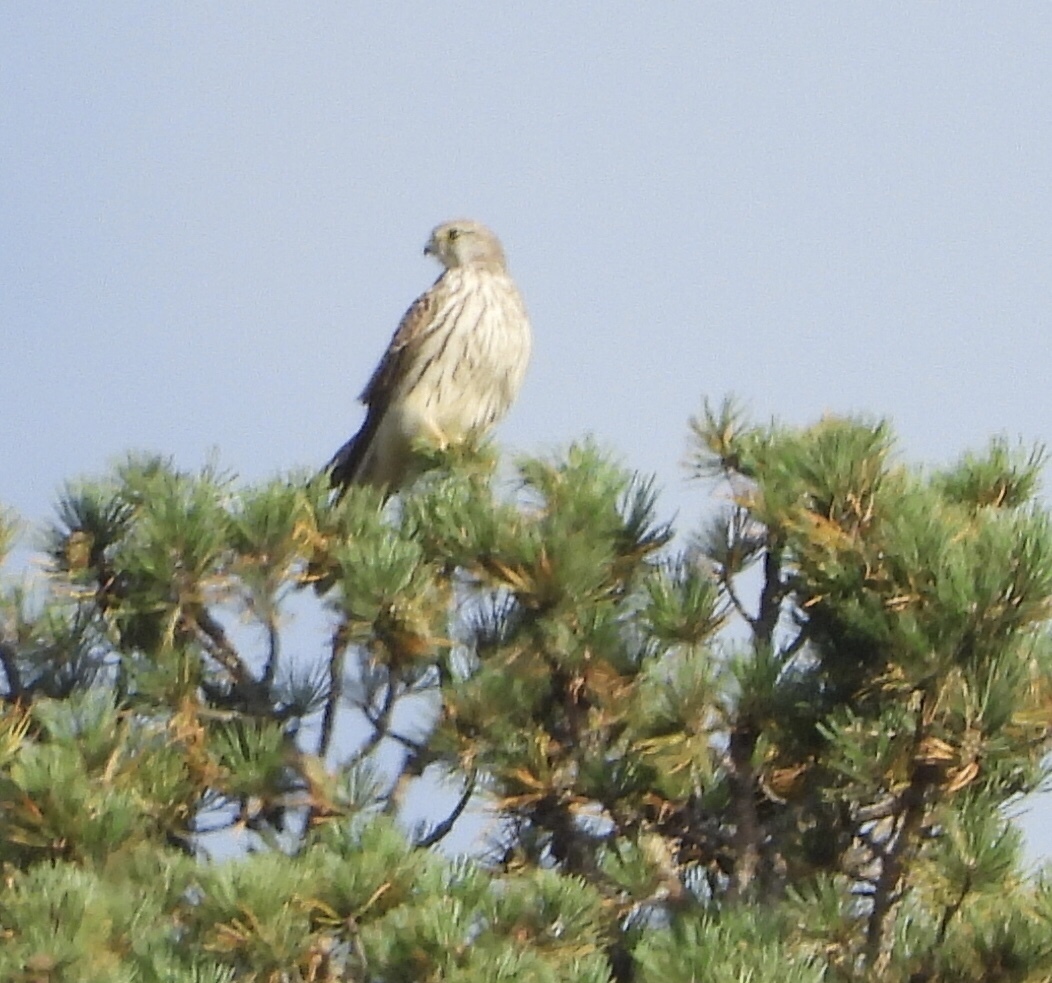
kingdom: Animalia
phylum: Chordata
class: Aves
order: Falconiformes
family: Falconidae
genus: Falco
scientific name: Falco tinnunculus
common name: Common kestrel
